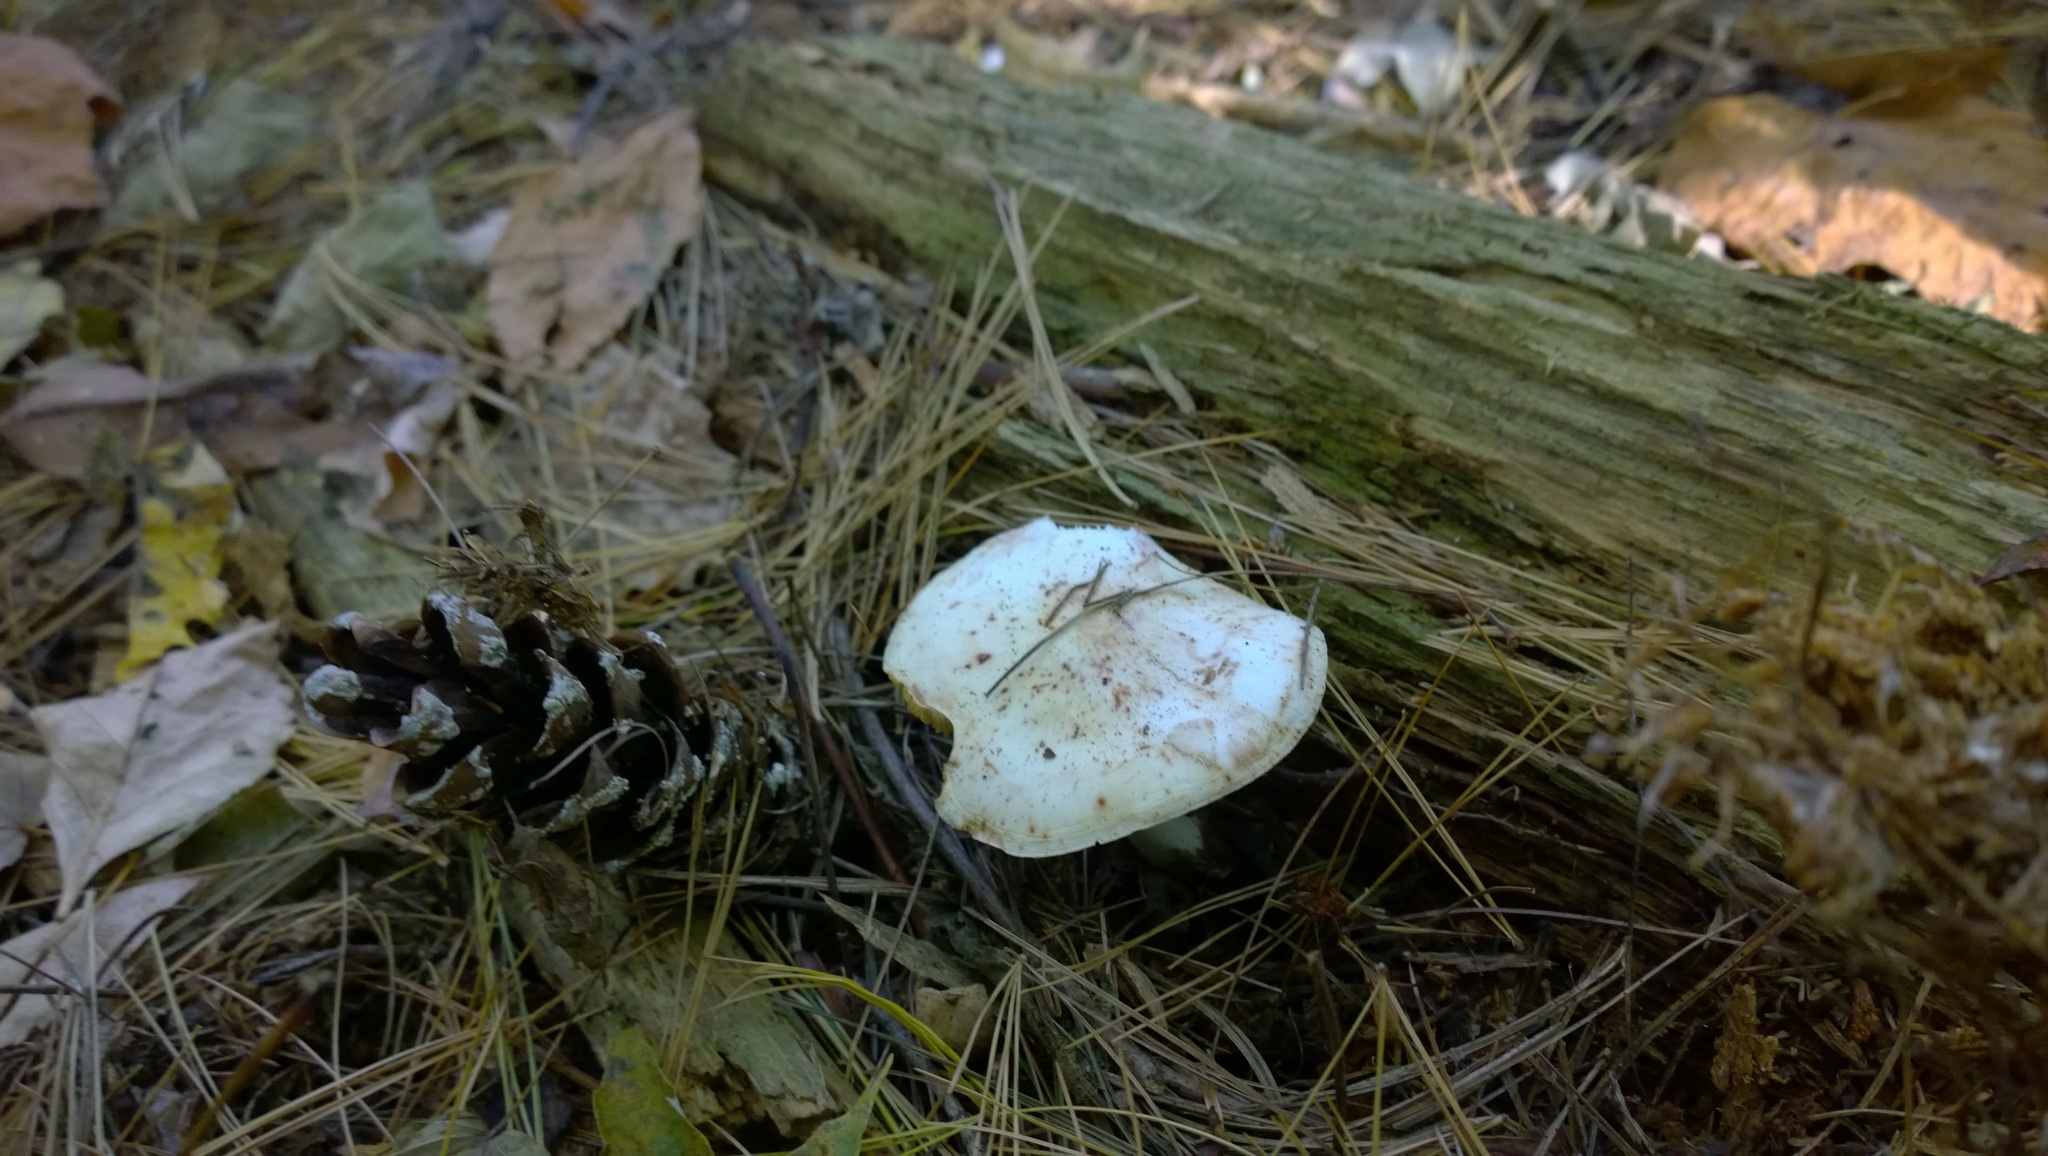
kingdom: Fungi
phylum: Basidiomycota
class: Agaricomycetes
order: Agaricales
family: Omphalotaceae
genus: Rhodocollybia
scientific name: Rhodocollybia maculata
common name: Spotted tough-shank
